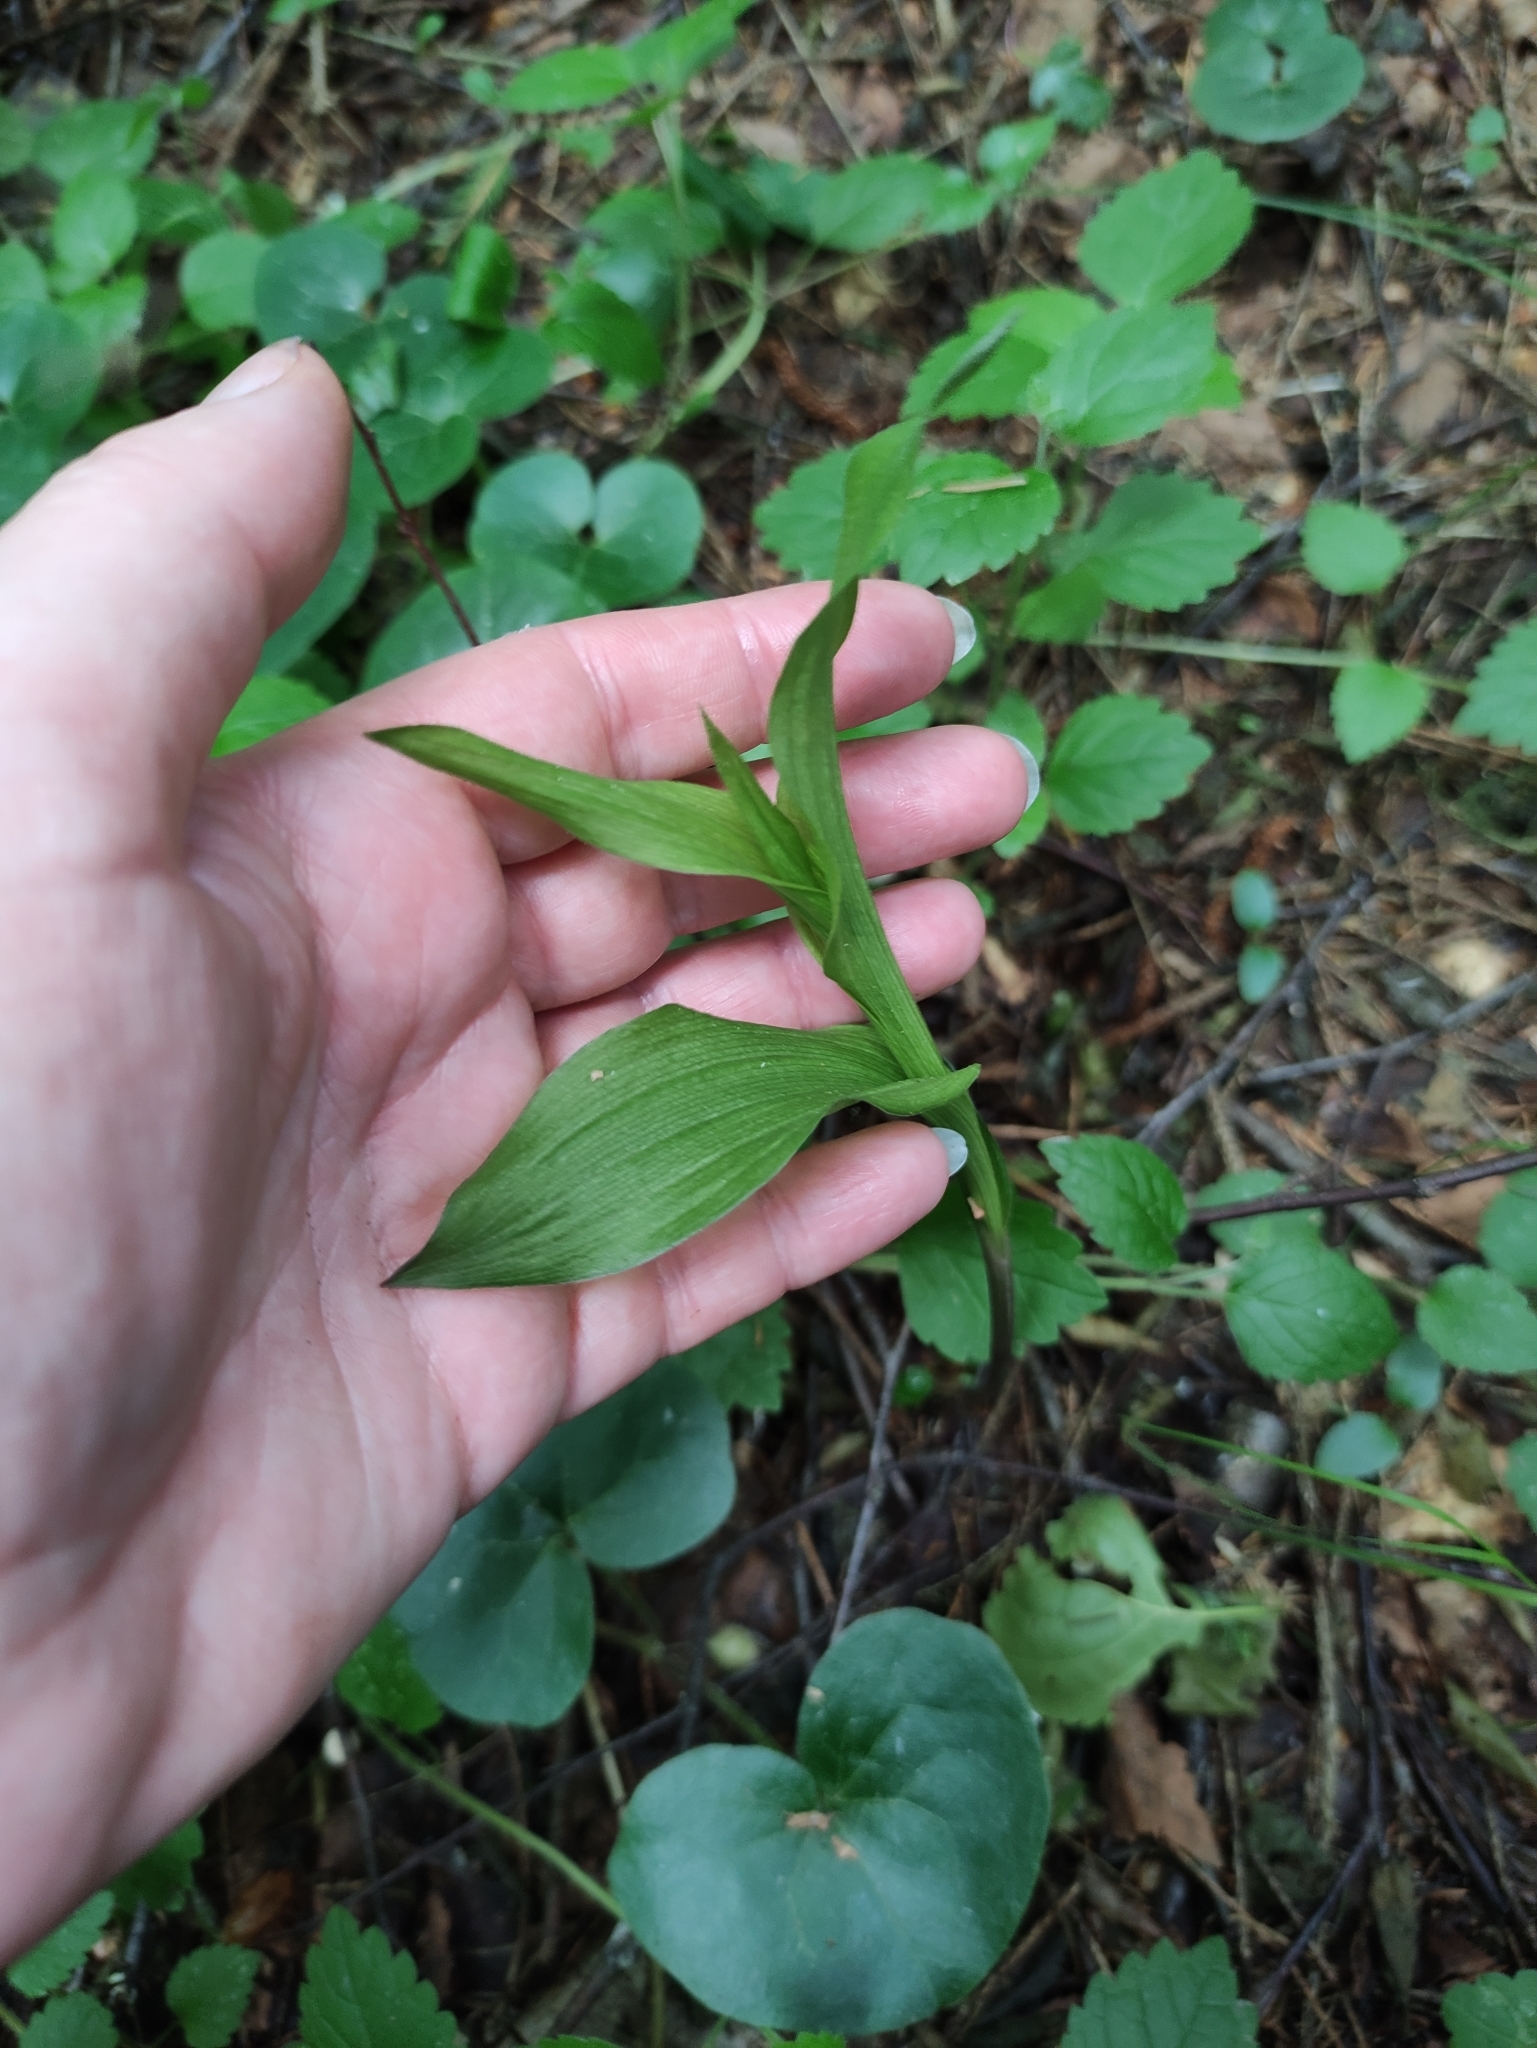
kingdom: Plantae
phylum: Tracheophyta
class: Liliopsida
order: Asparagales
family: Orchidaceae
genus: Epipactis
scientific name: Epipactis helleborine
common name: Broad-leaved helleborine
